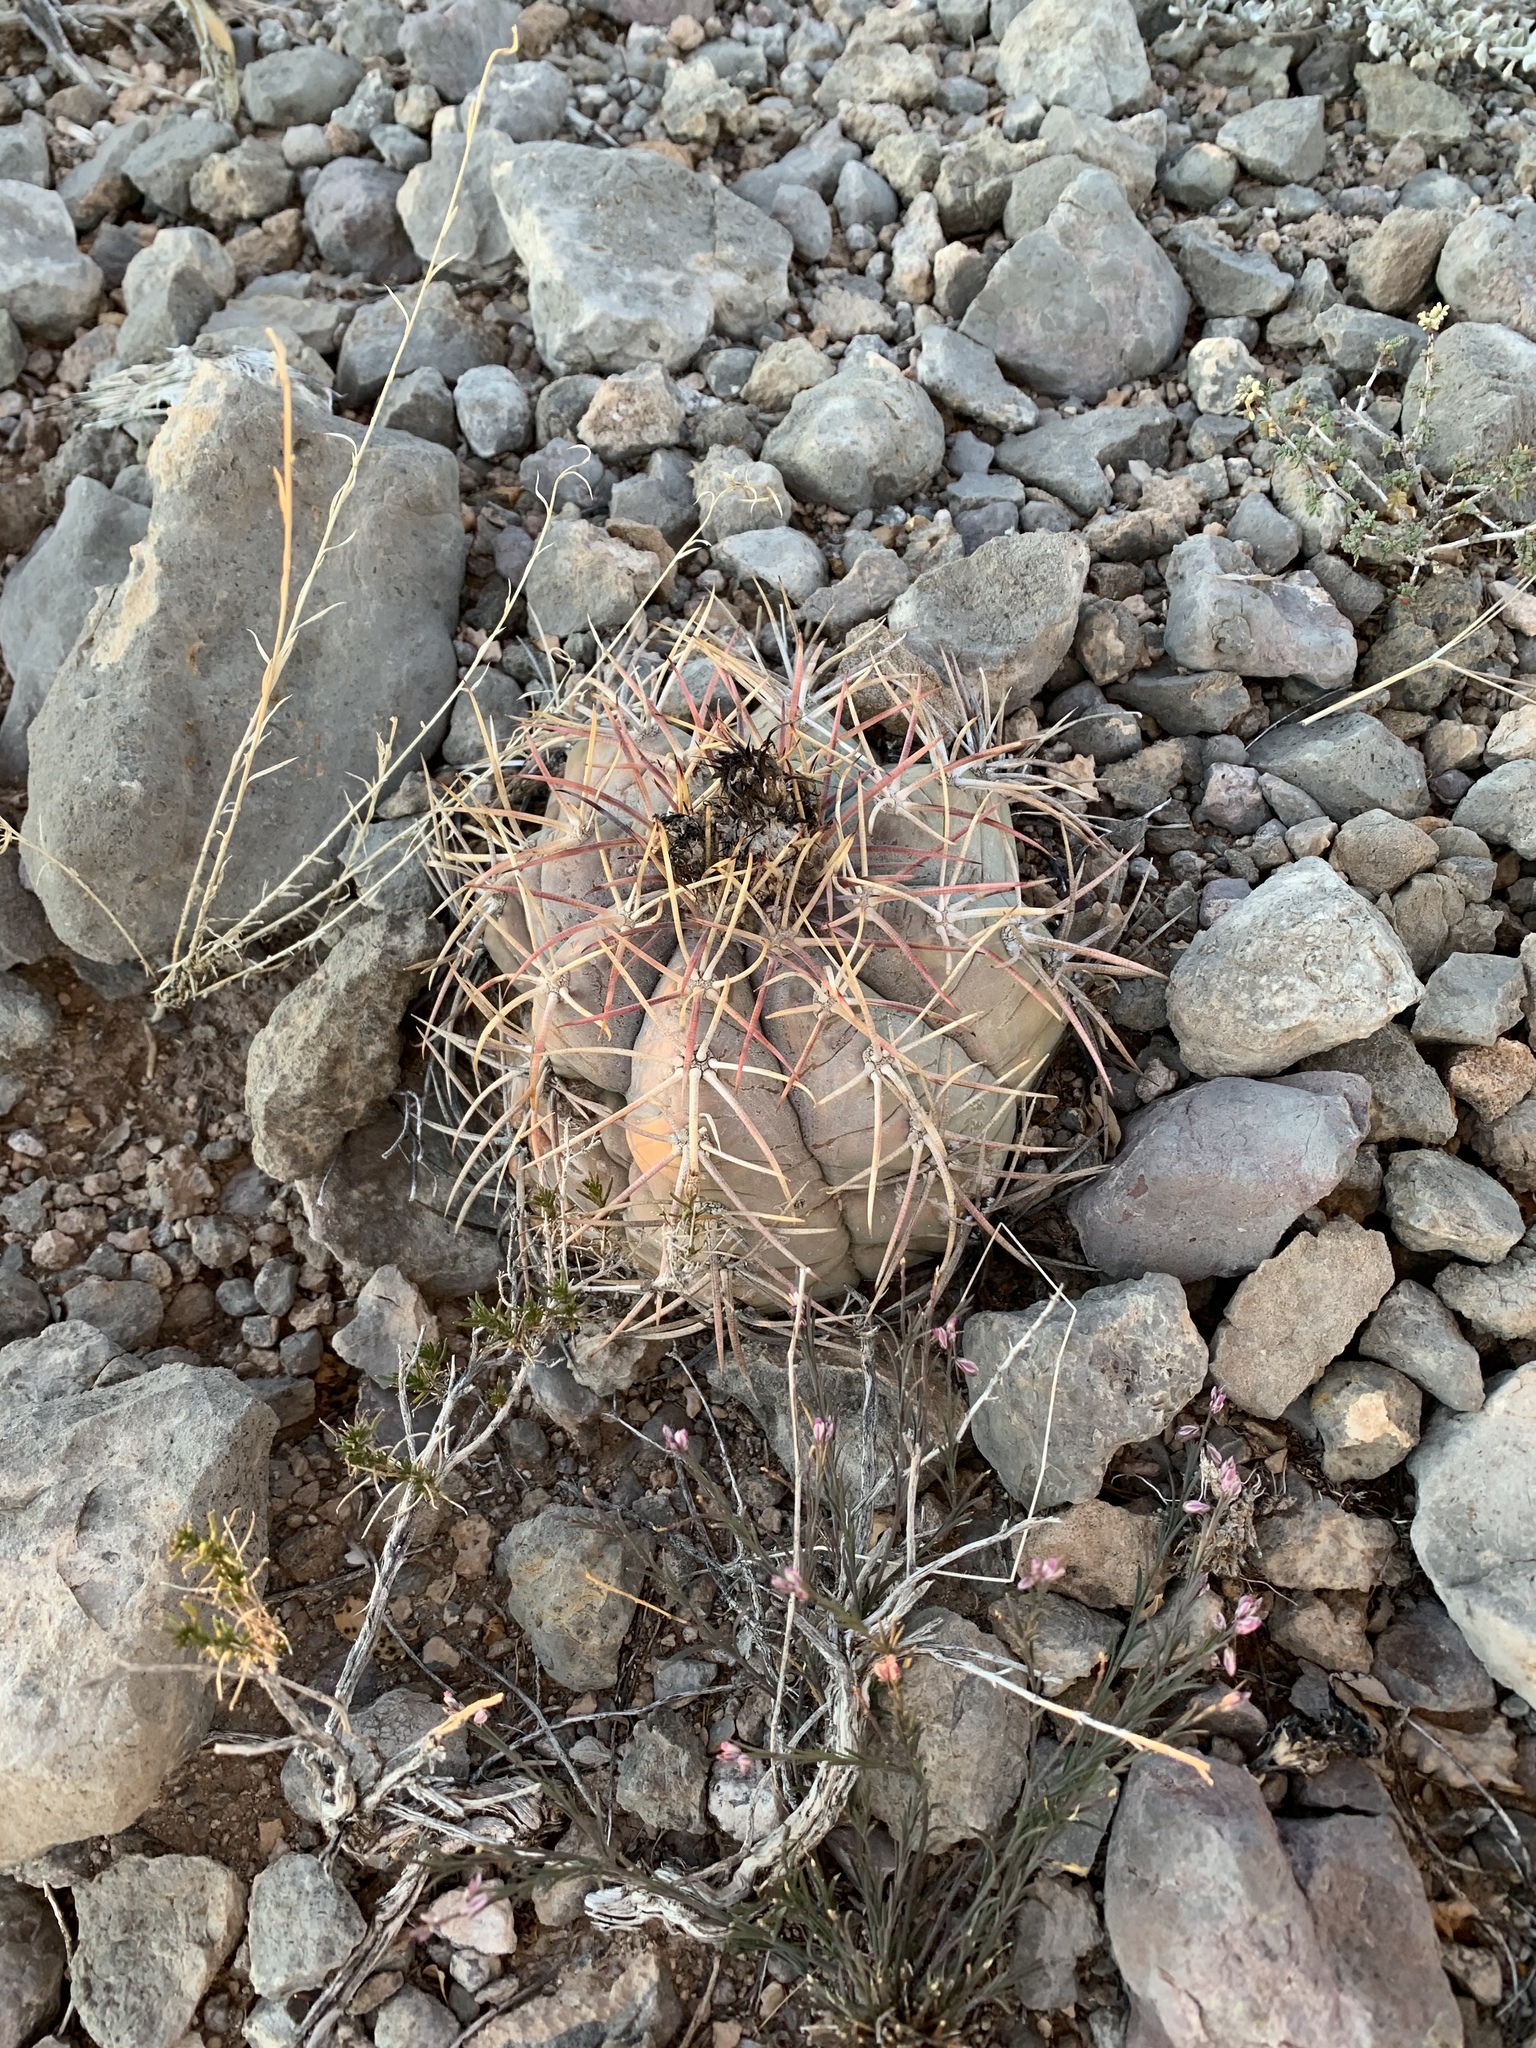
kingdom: Plantae
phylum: Tracheophyta
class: Magnoliopsida
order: Caryophyllales
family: Cactaceae
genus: Echinocactus
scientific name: Echinocactus horizonthalonius
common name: Devilshead
